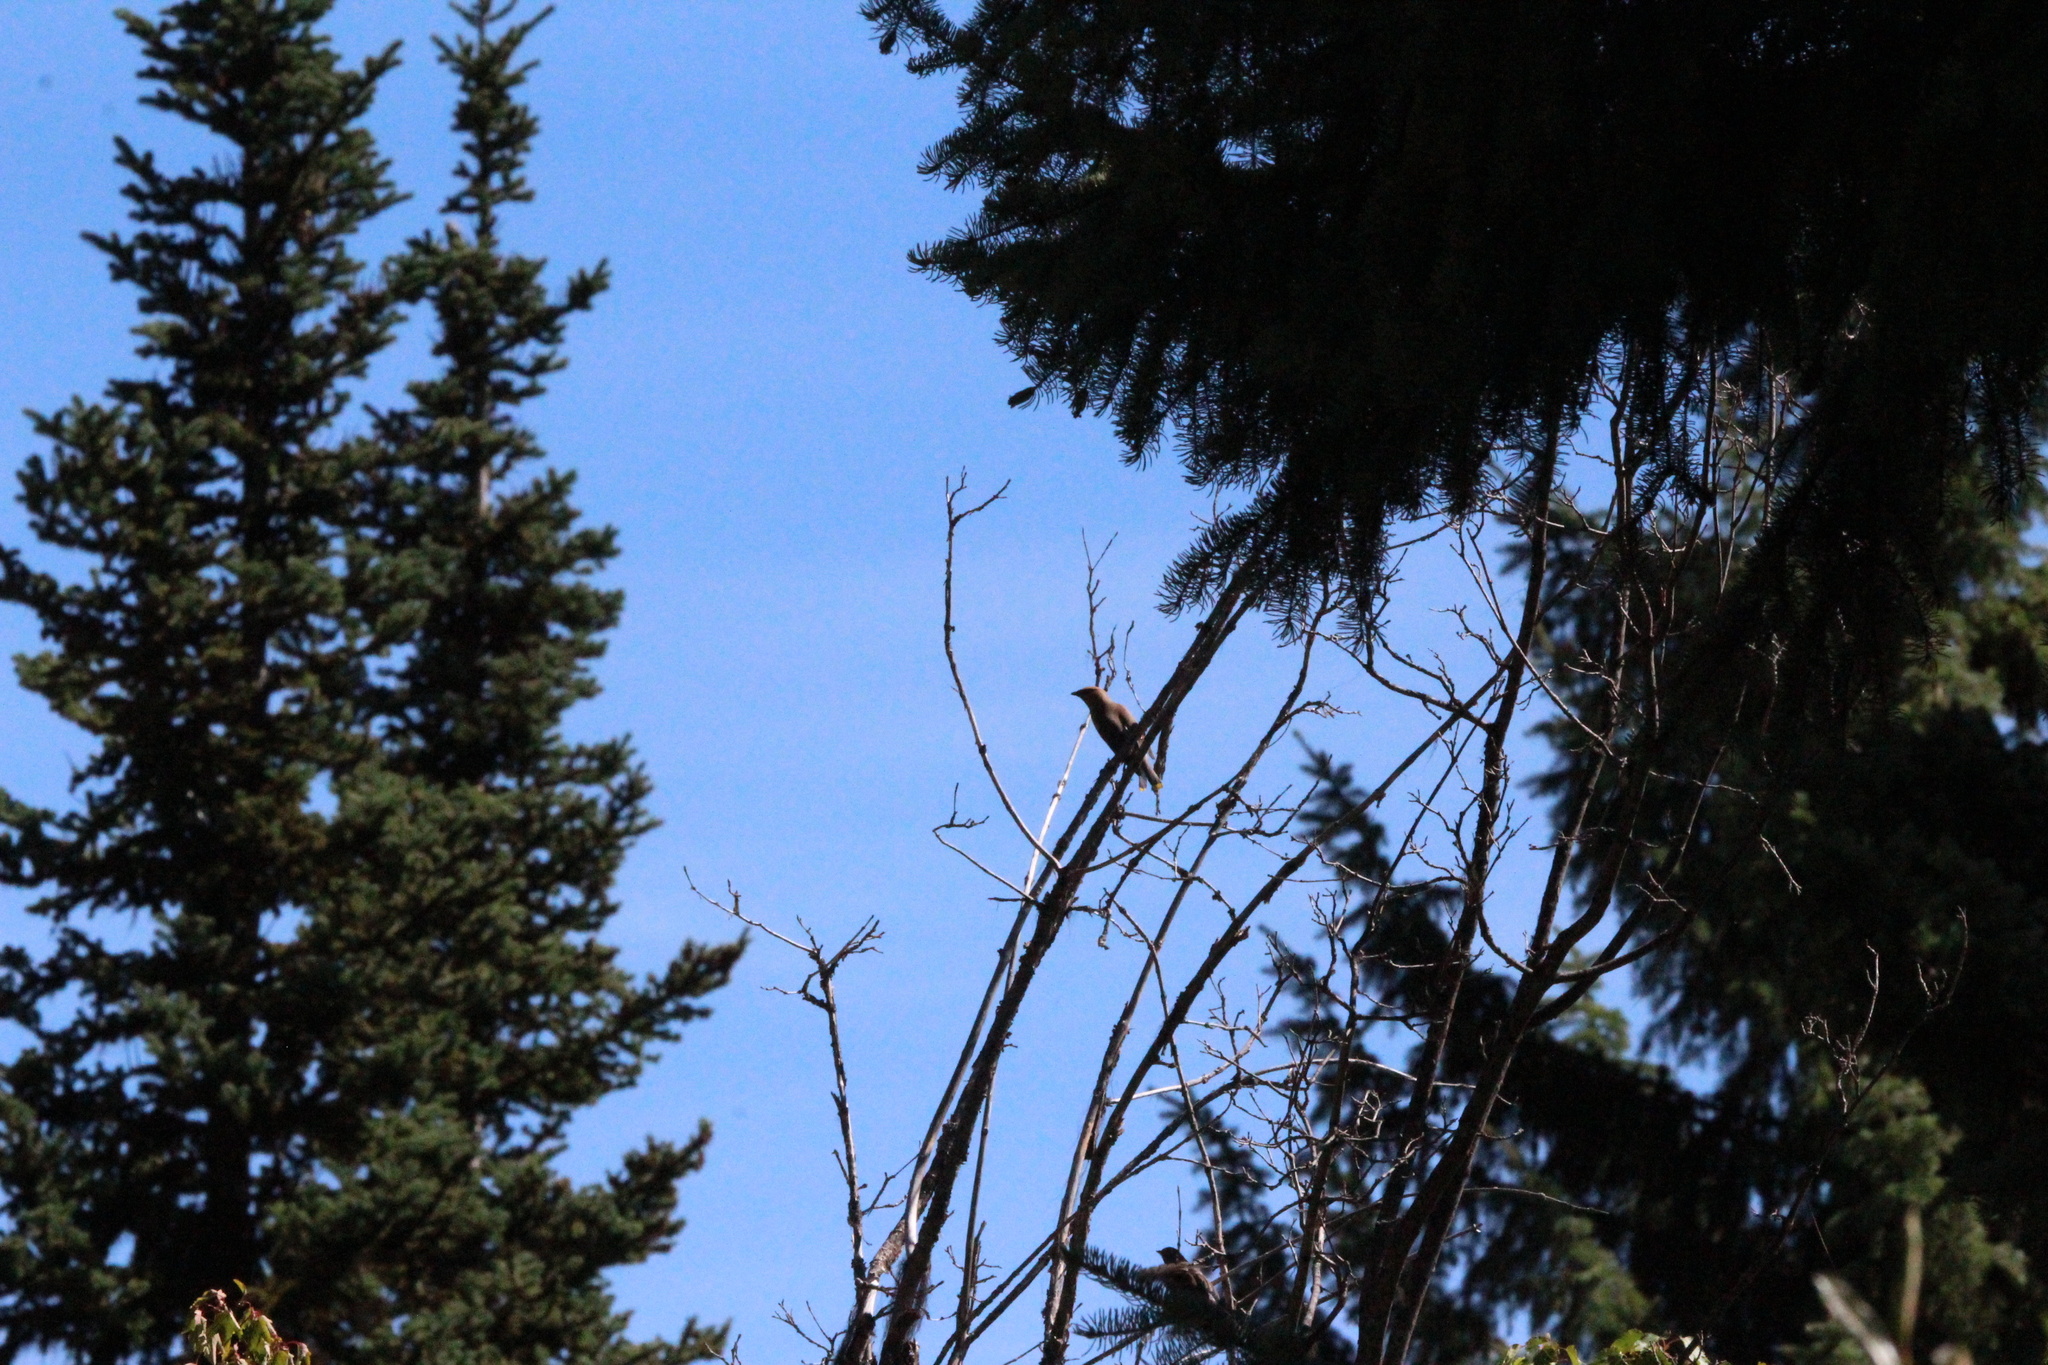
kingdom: Animalia
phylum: Chordata
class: Aves
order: Passeriformes
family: Bombycillidae
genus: Bombycilla
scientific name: Bombycilla cedrorum
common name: Cedar waxwing
